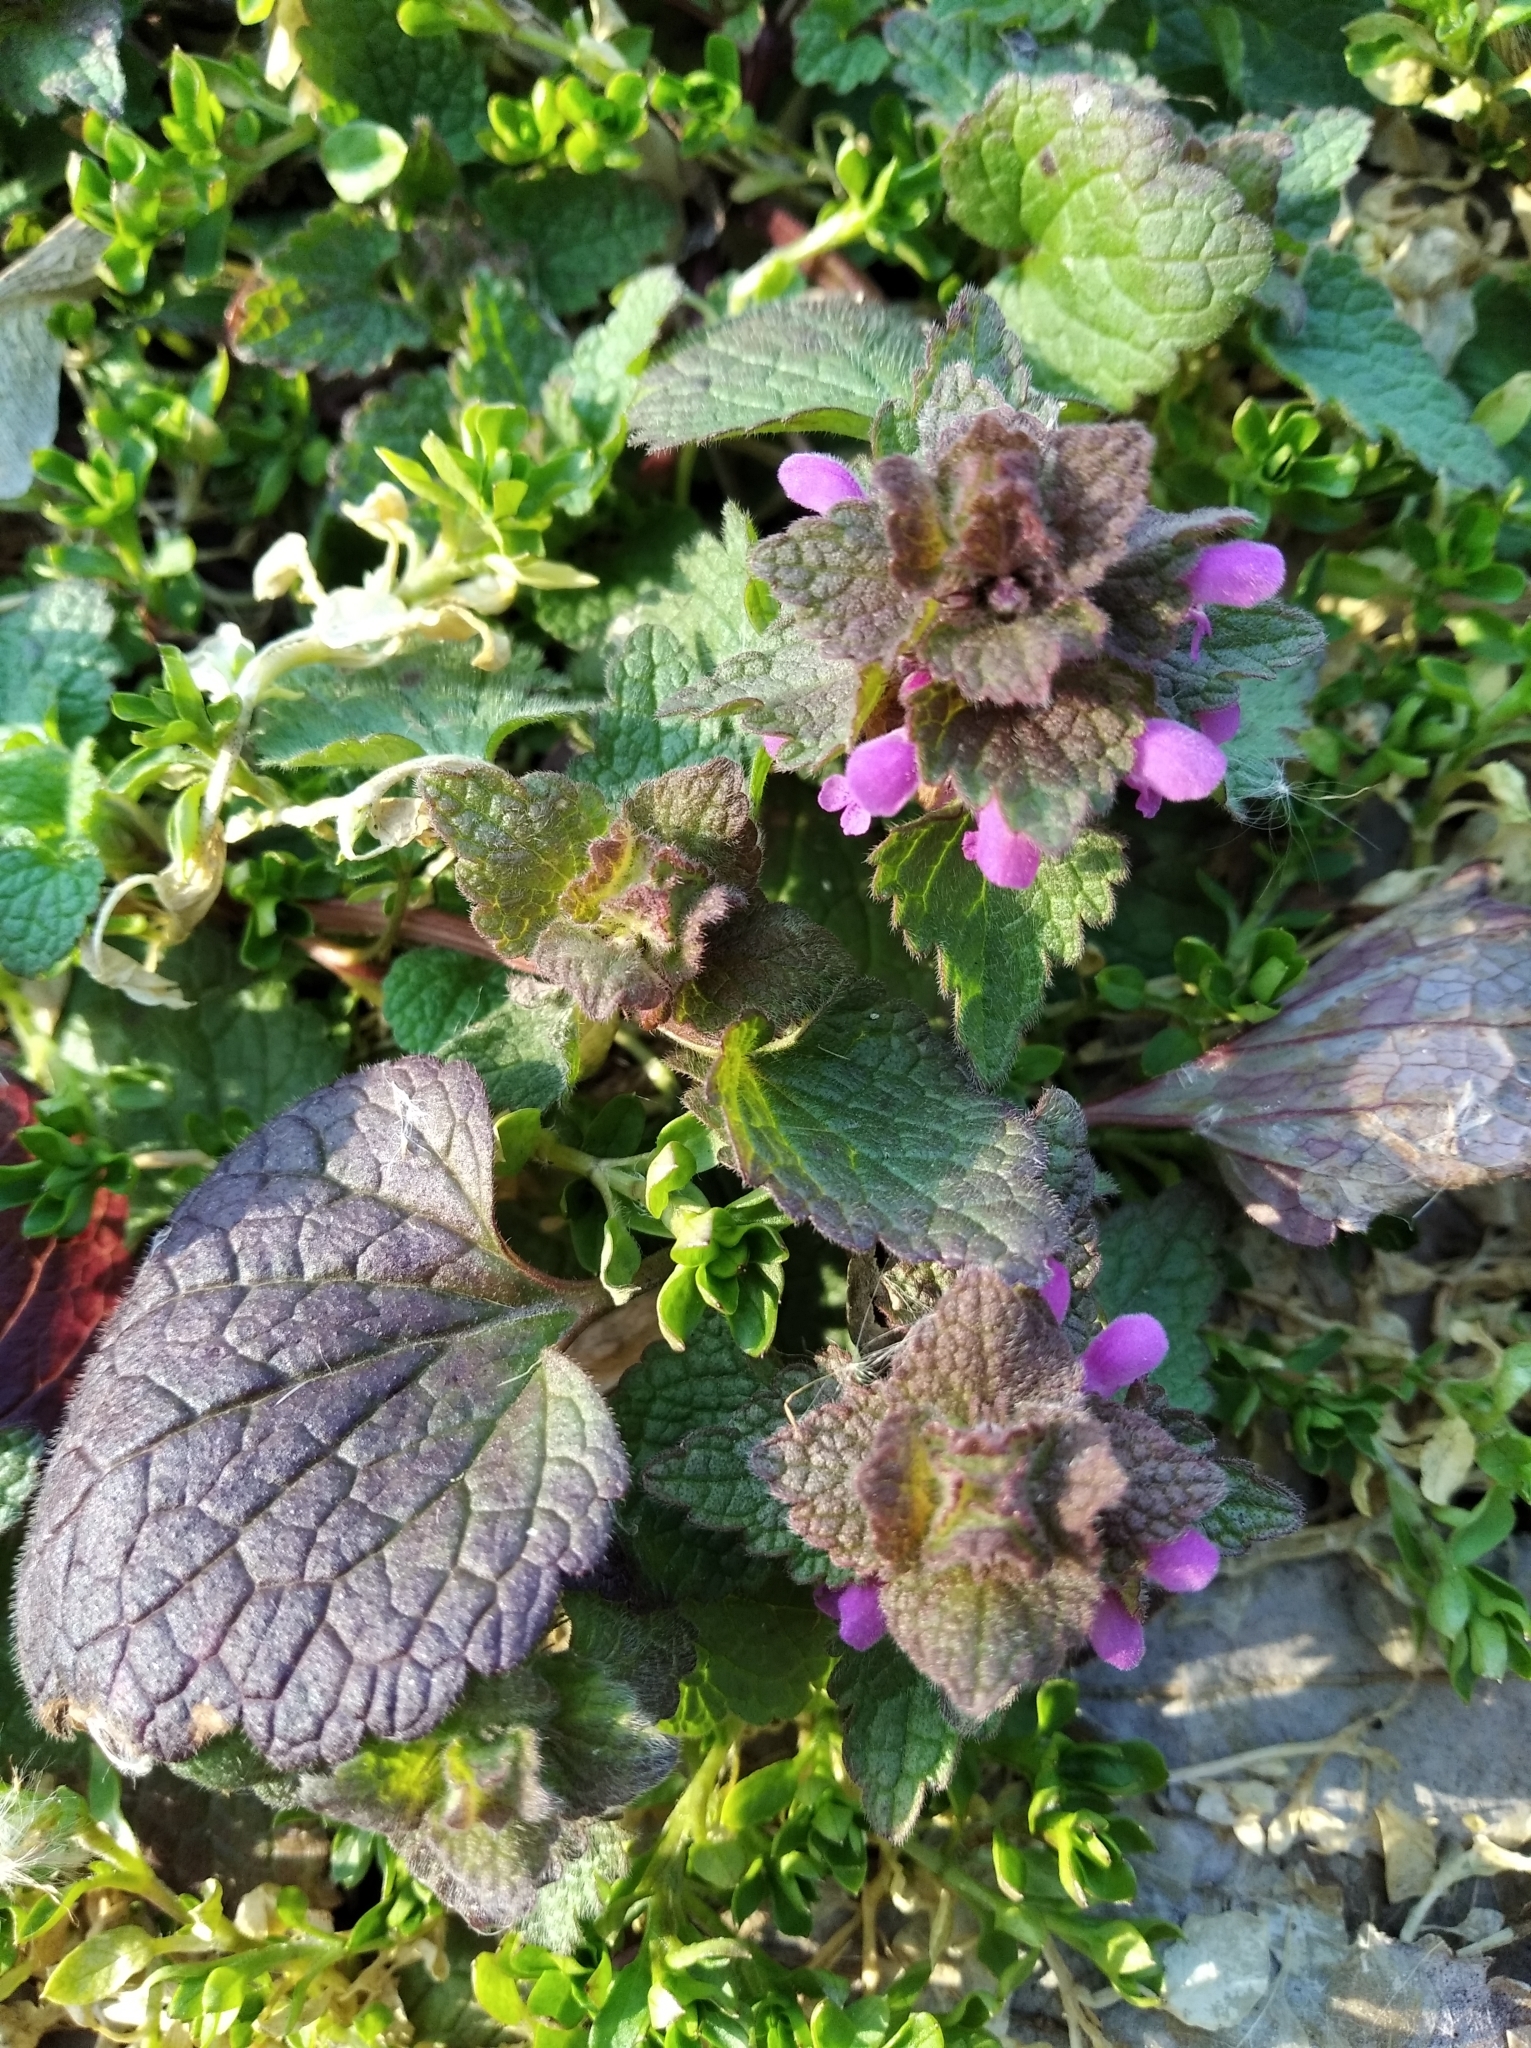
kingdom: Plantae
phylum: Tracheophyta
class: Magnoliopsida
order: Lamiales
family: Lamiaceae
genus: Lamium
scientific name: Lamium purpureum
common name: Red dead-nettle
